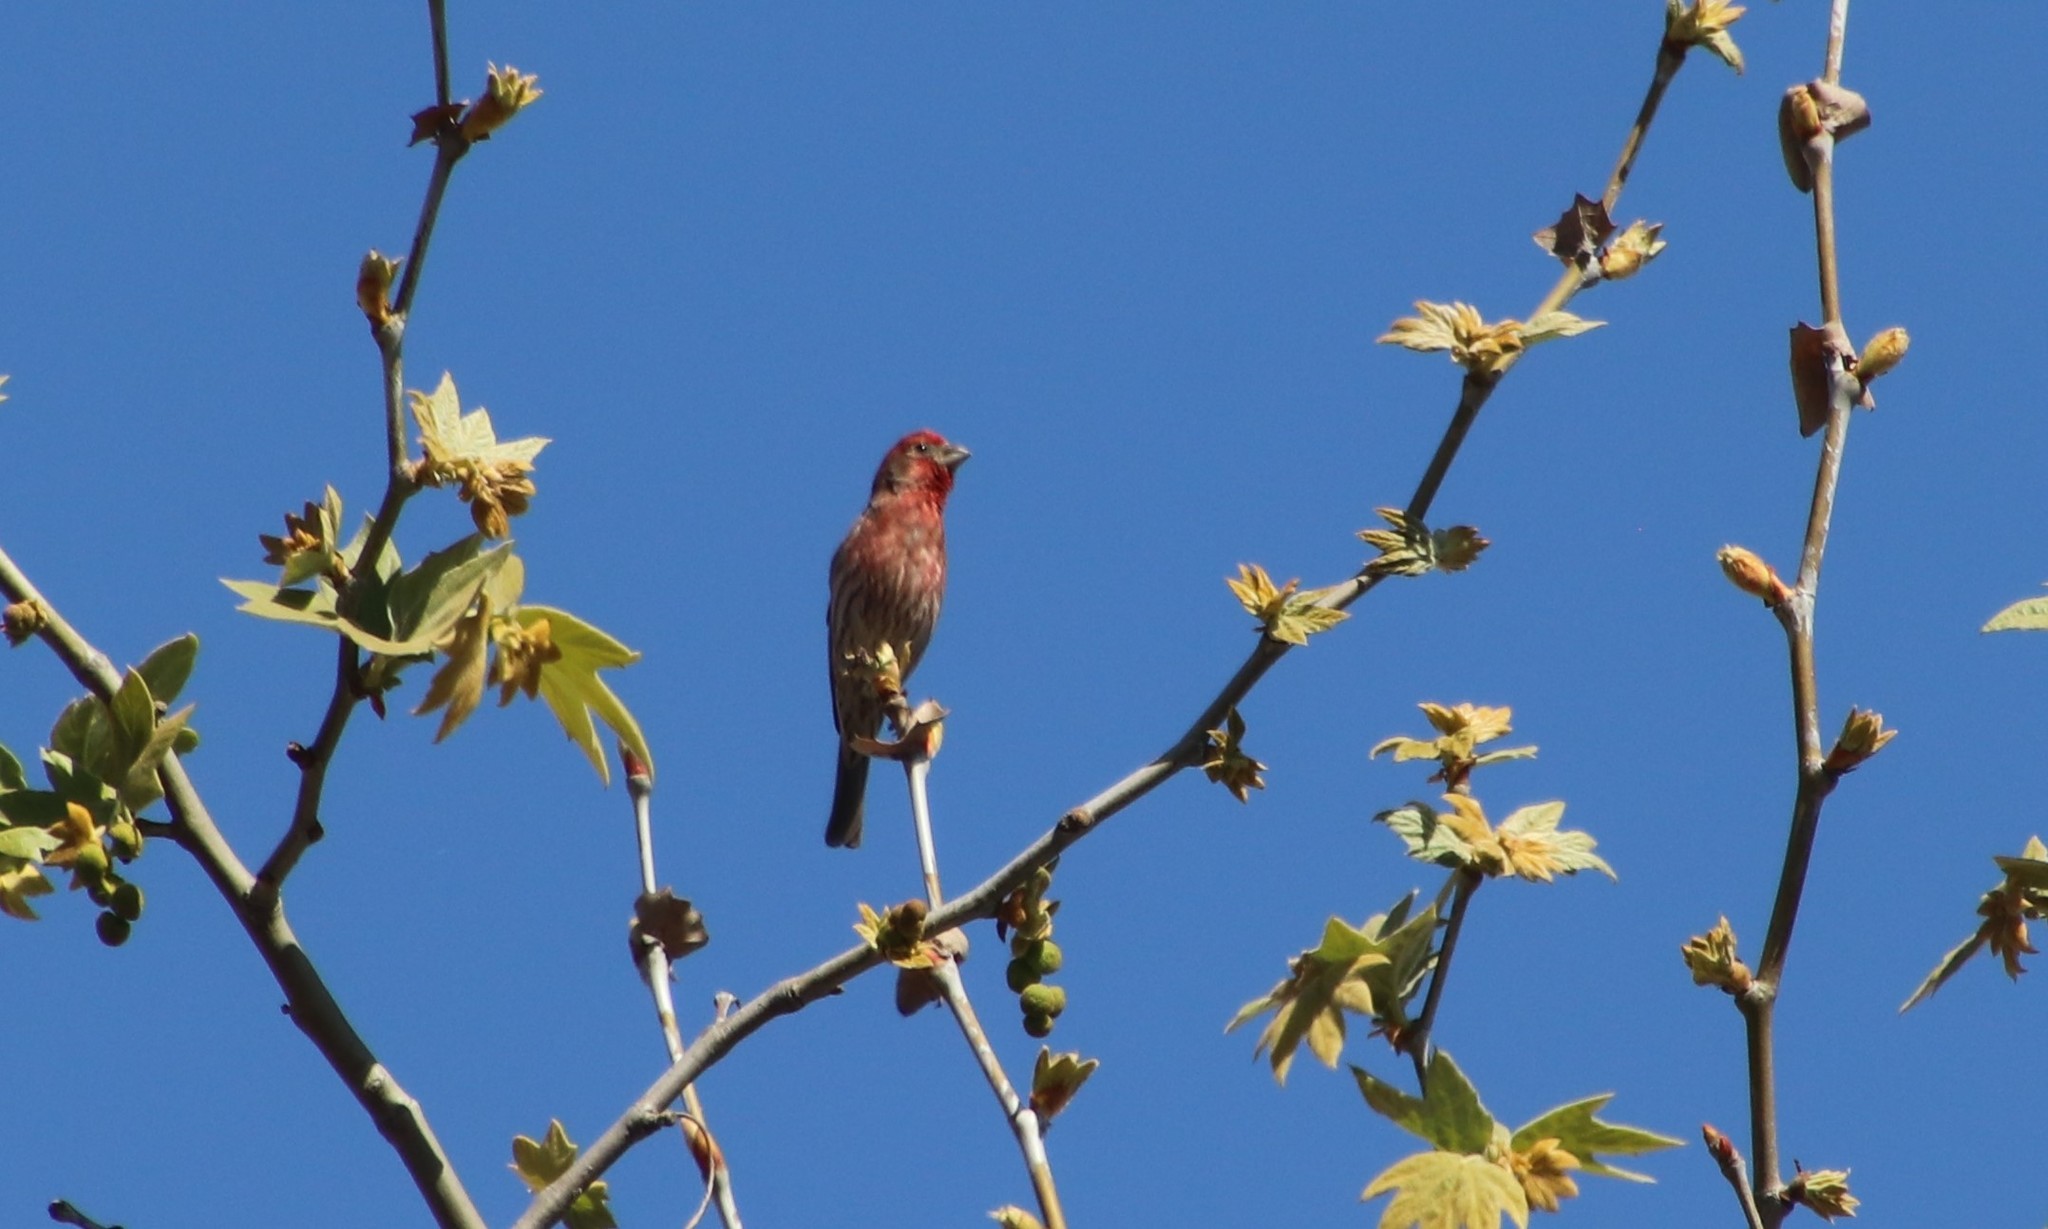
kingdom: Animalia
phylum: Chordata
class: Aves
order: Passeriformes
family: Fringillidae
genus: Haemorhous
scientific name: Haemorhous mexicanus
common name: House finch
